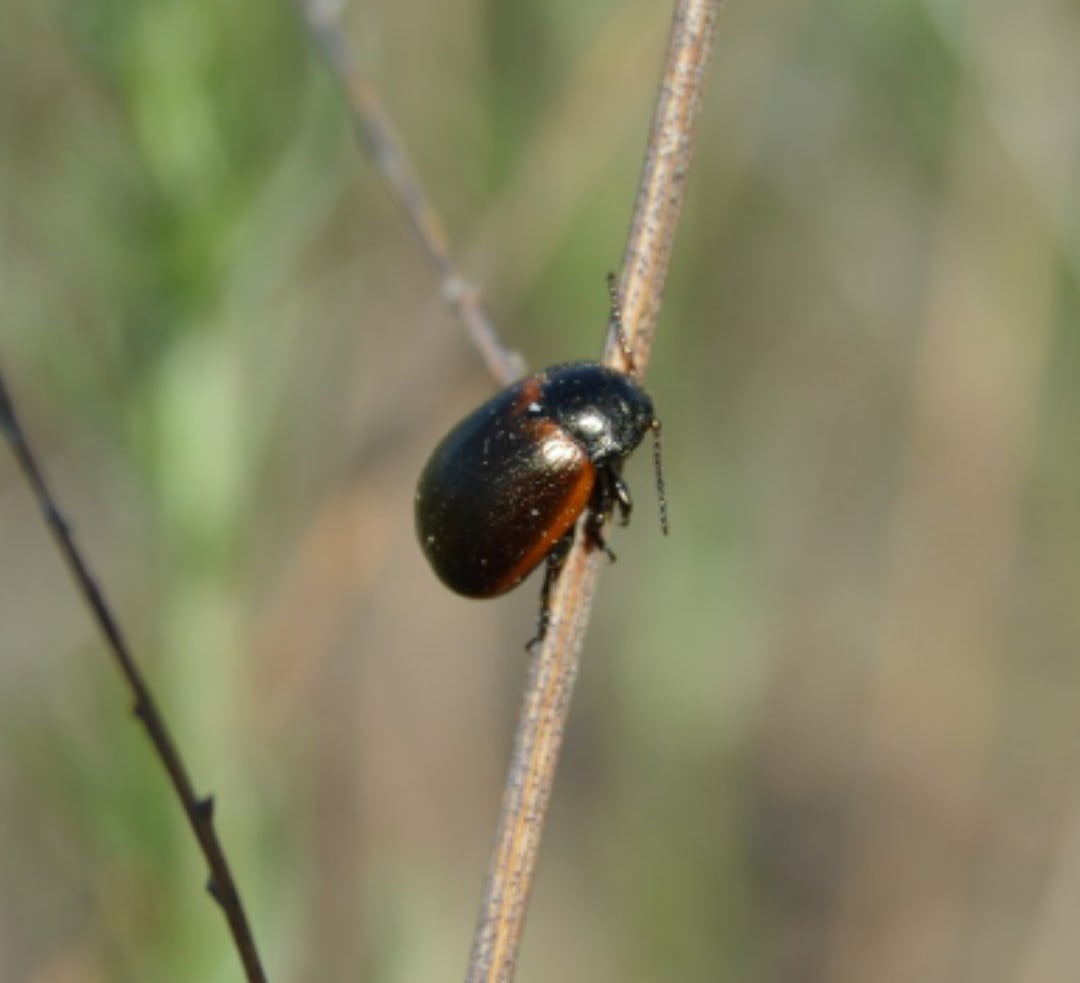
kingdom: Animalia
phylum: Arthropoda
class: Insecta
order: Coleoptera
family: Chrysomelidae
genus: Chrysolina
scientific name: Chrysolina cinctipennis
